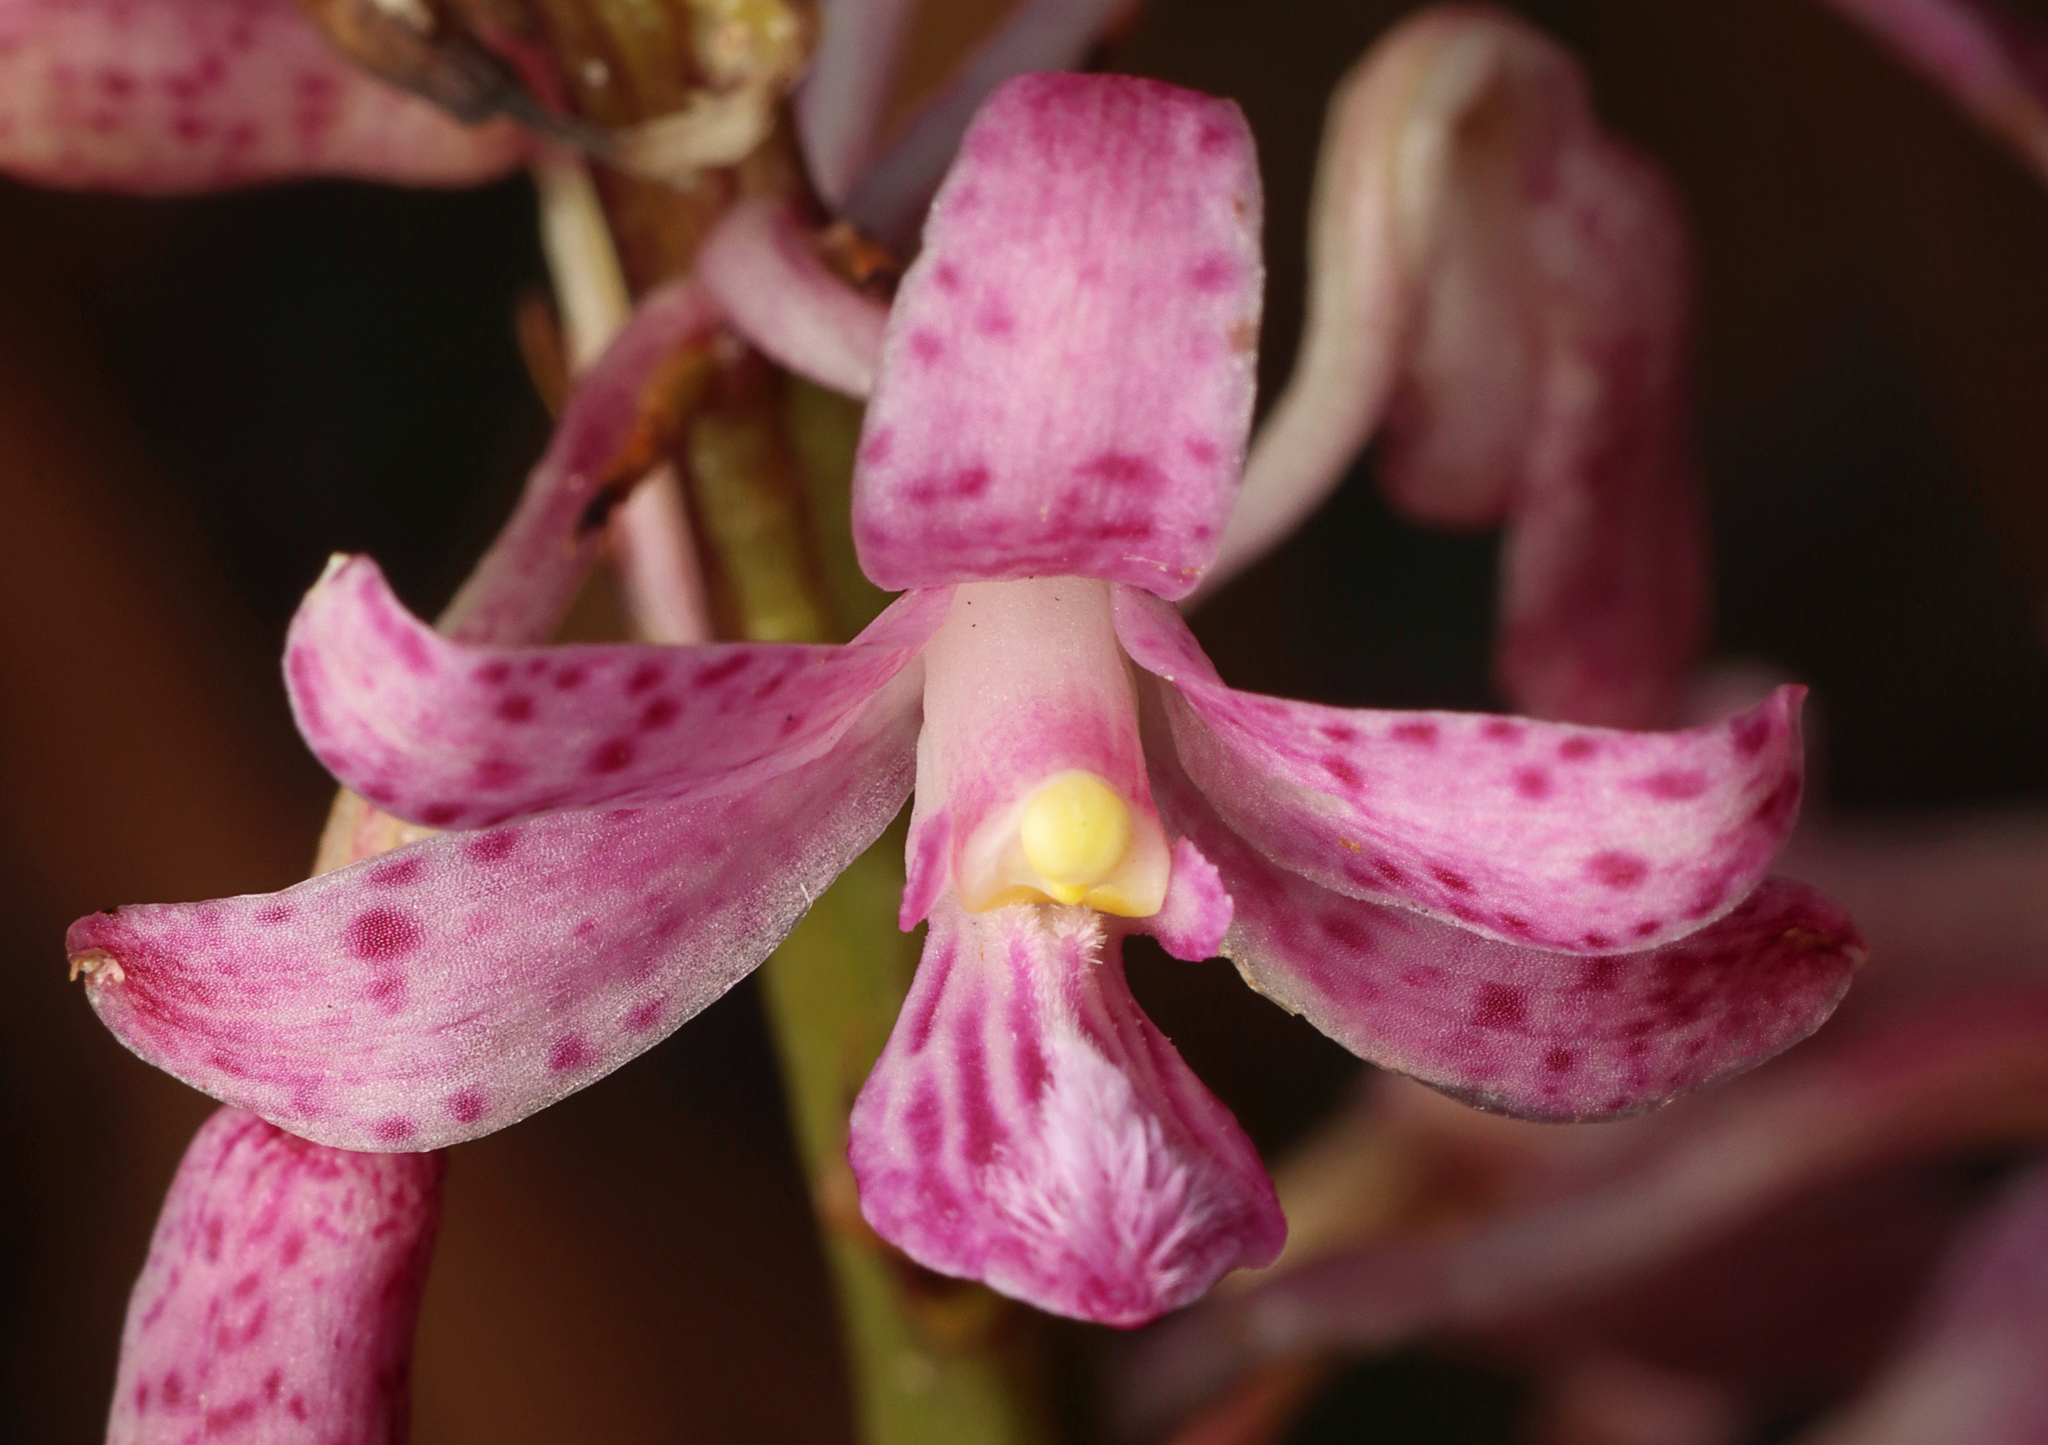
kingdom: Plantae
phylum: Tracheophyta
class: Liliopsida
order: Asparagales
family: Orchidaceae
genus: Dipodium
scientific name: Dipodium roseum
